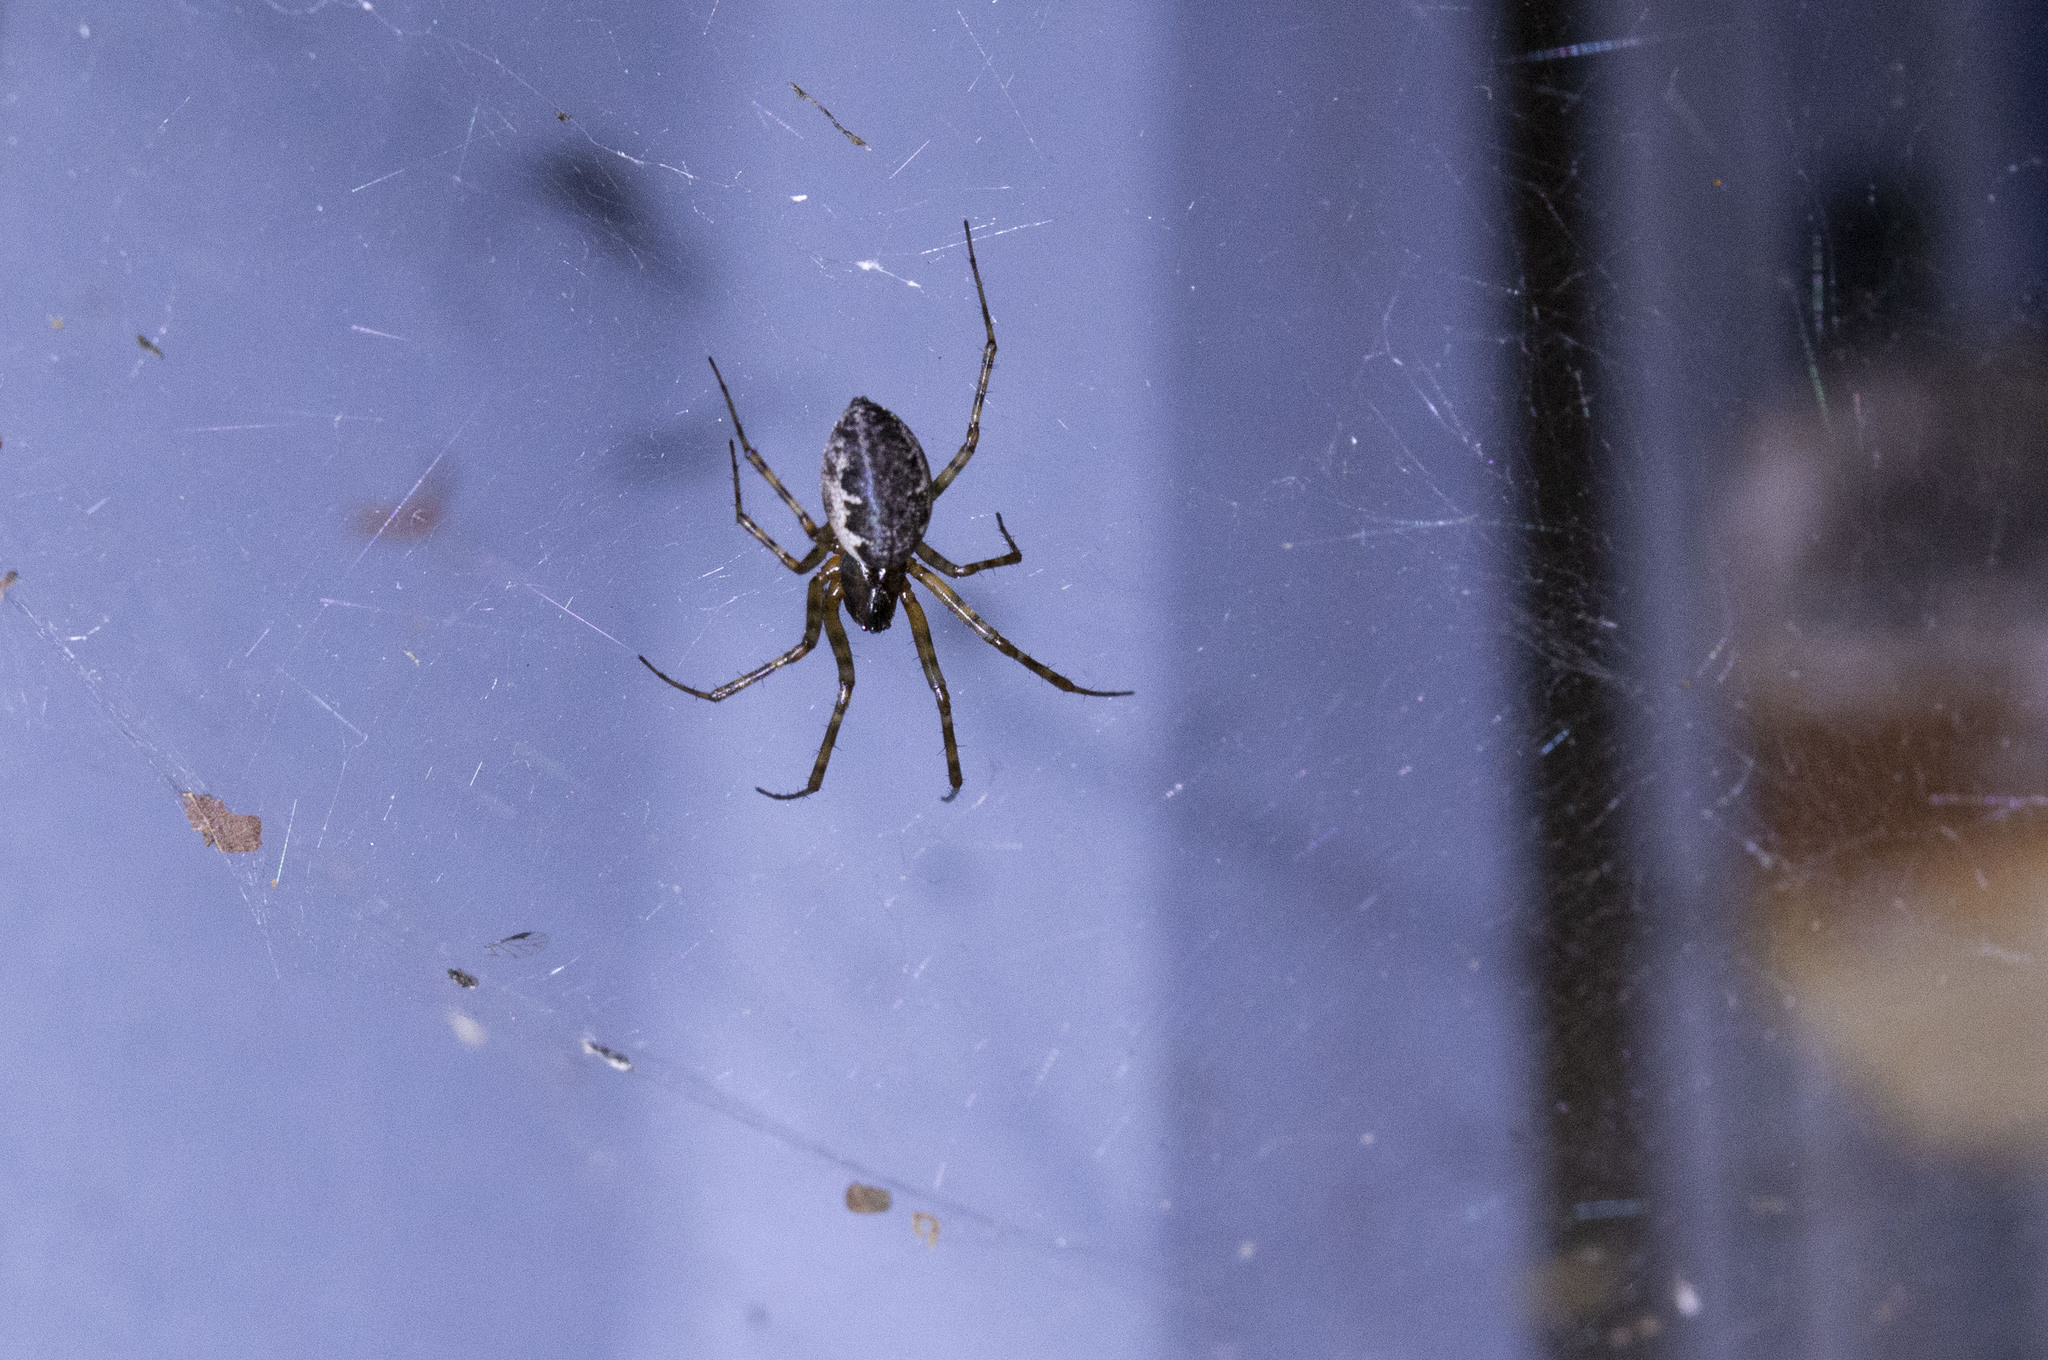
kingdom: Animalia
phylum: Arthropoda
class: Arachnida
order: Araneae
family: Linyphiidae
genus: Neriene
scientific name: Neriene montana
